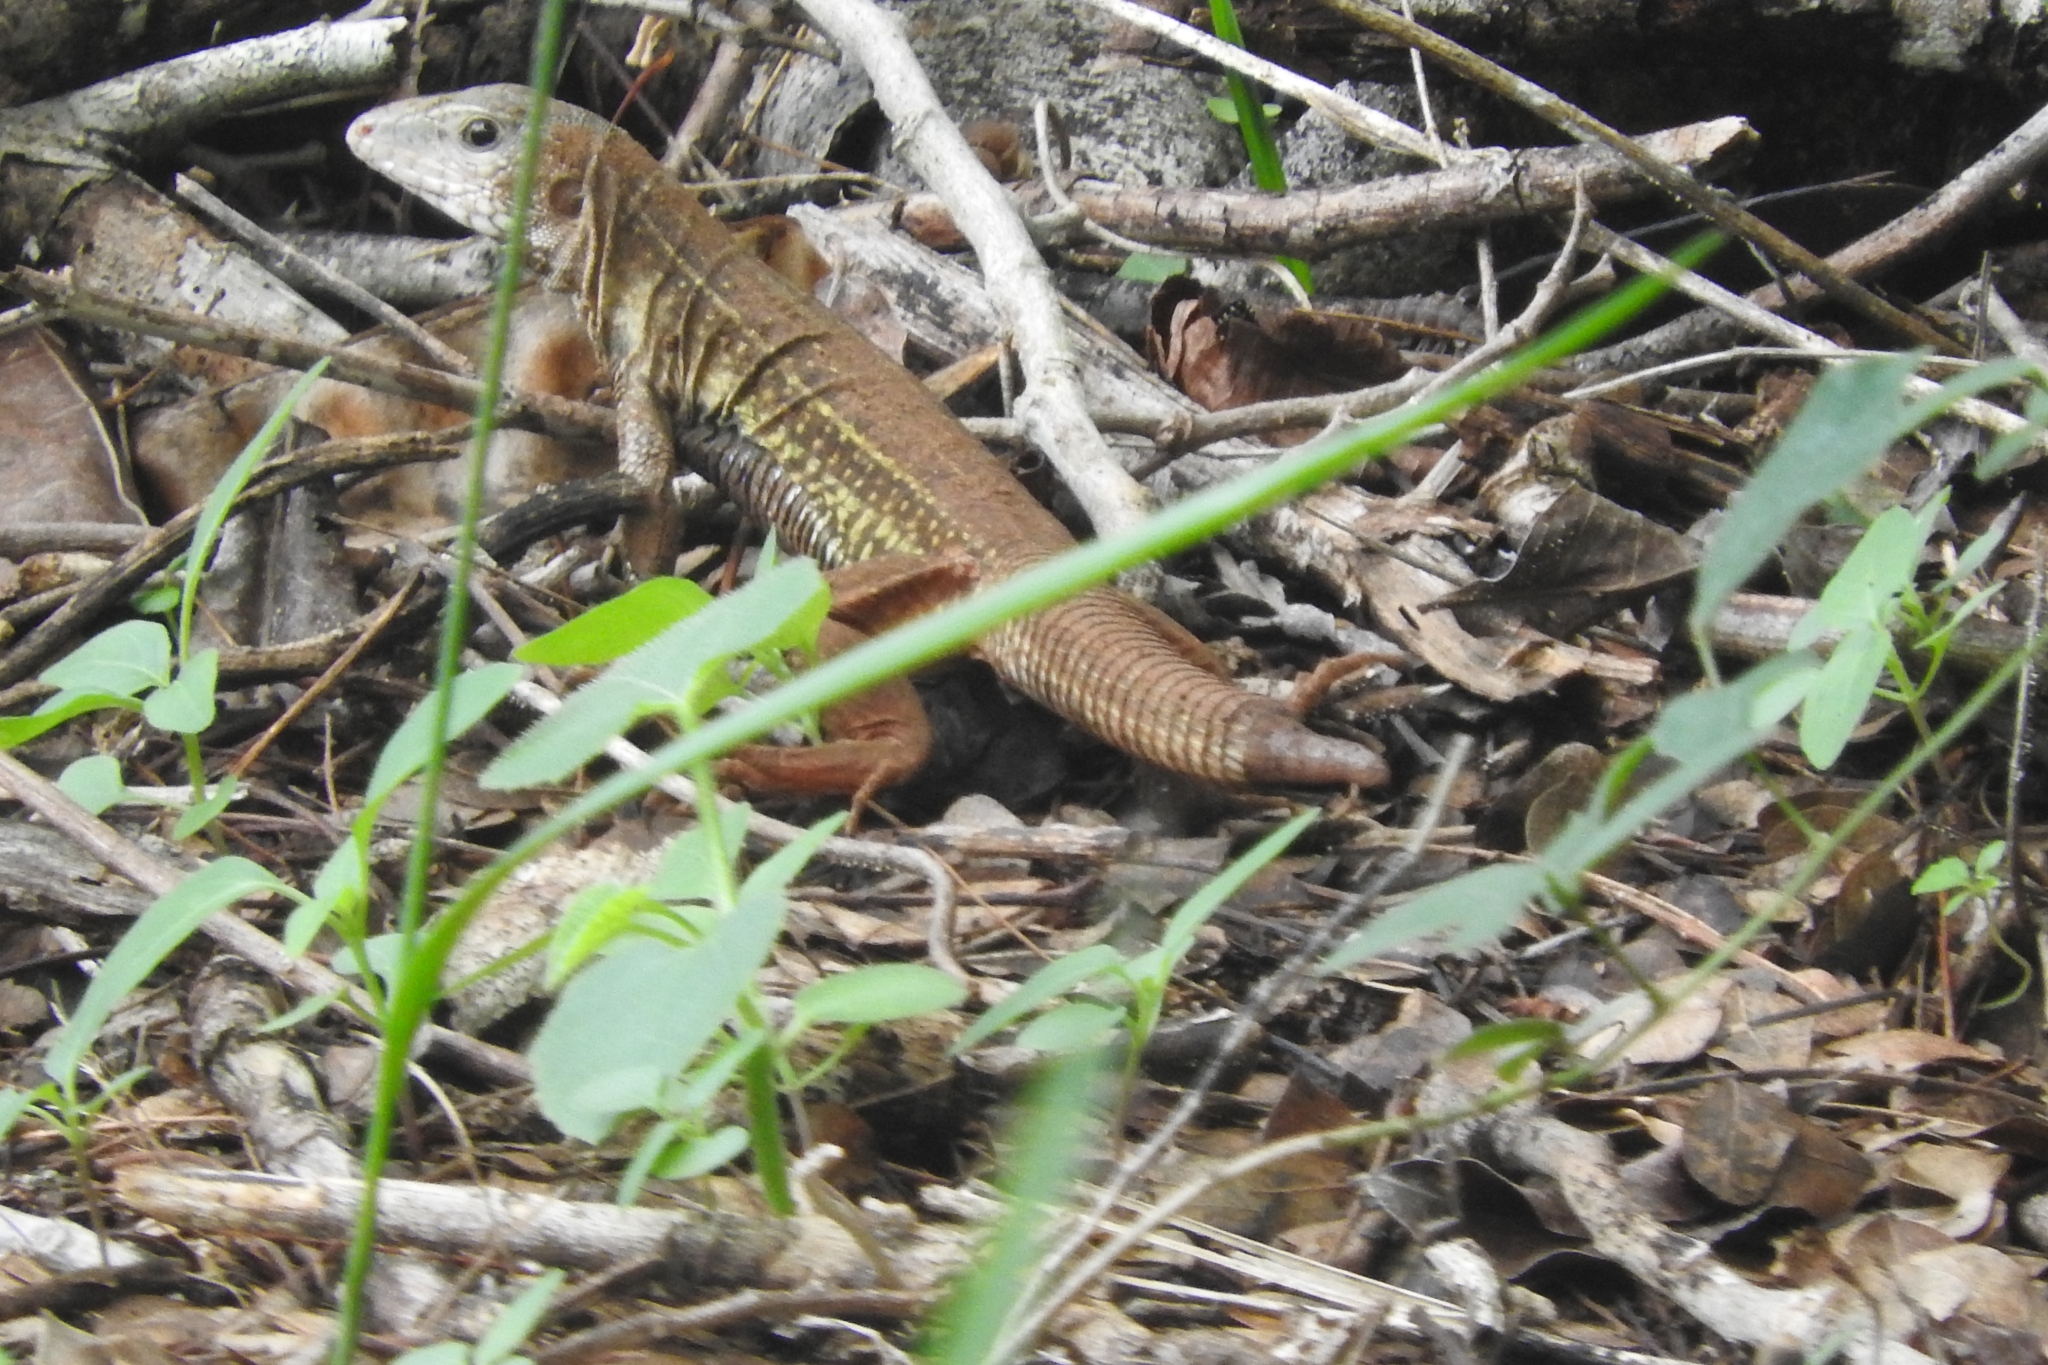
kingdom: Animalia
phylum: Chordata
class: Squamata
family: Teiidae
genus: Aspidoscelis
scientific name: Aspidoscelis angusticeps
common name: Yucatan whiptail
